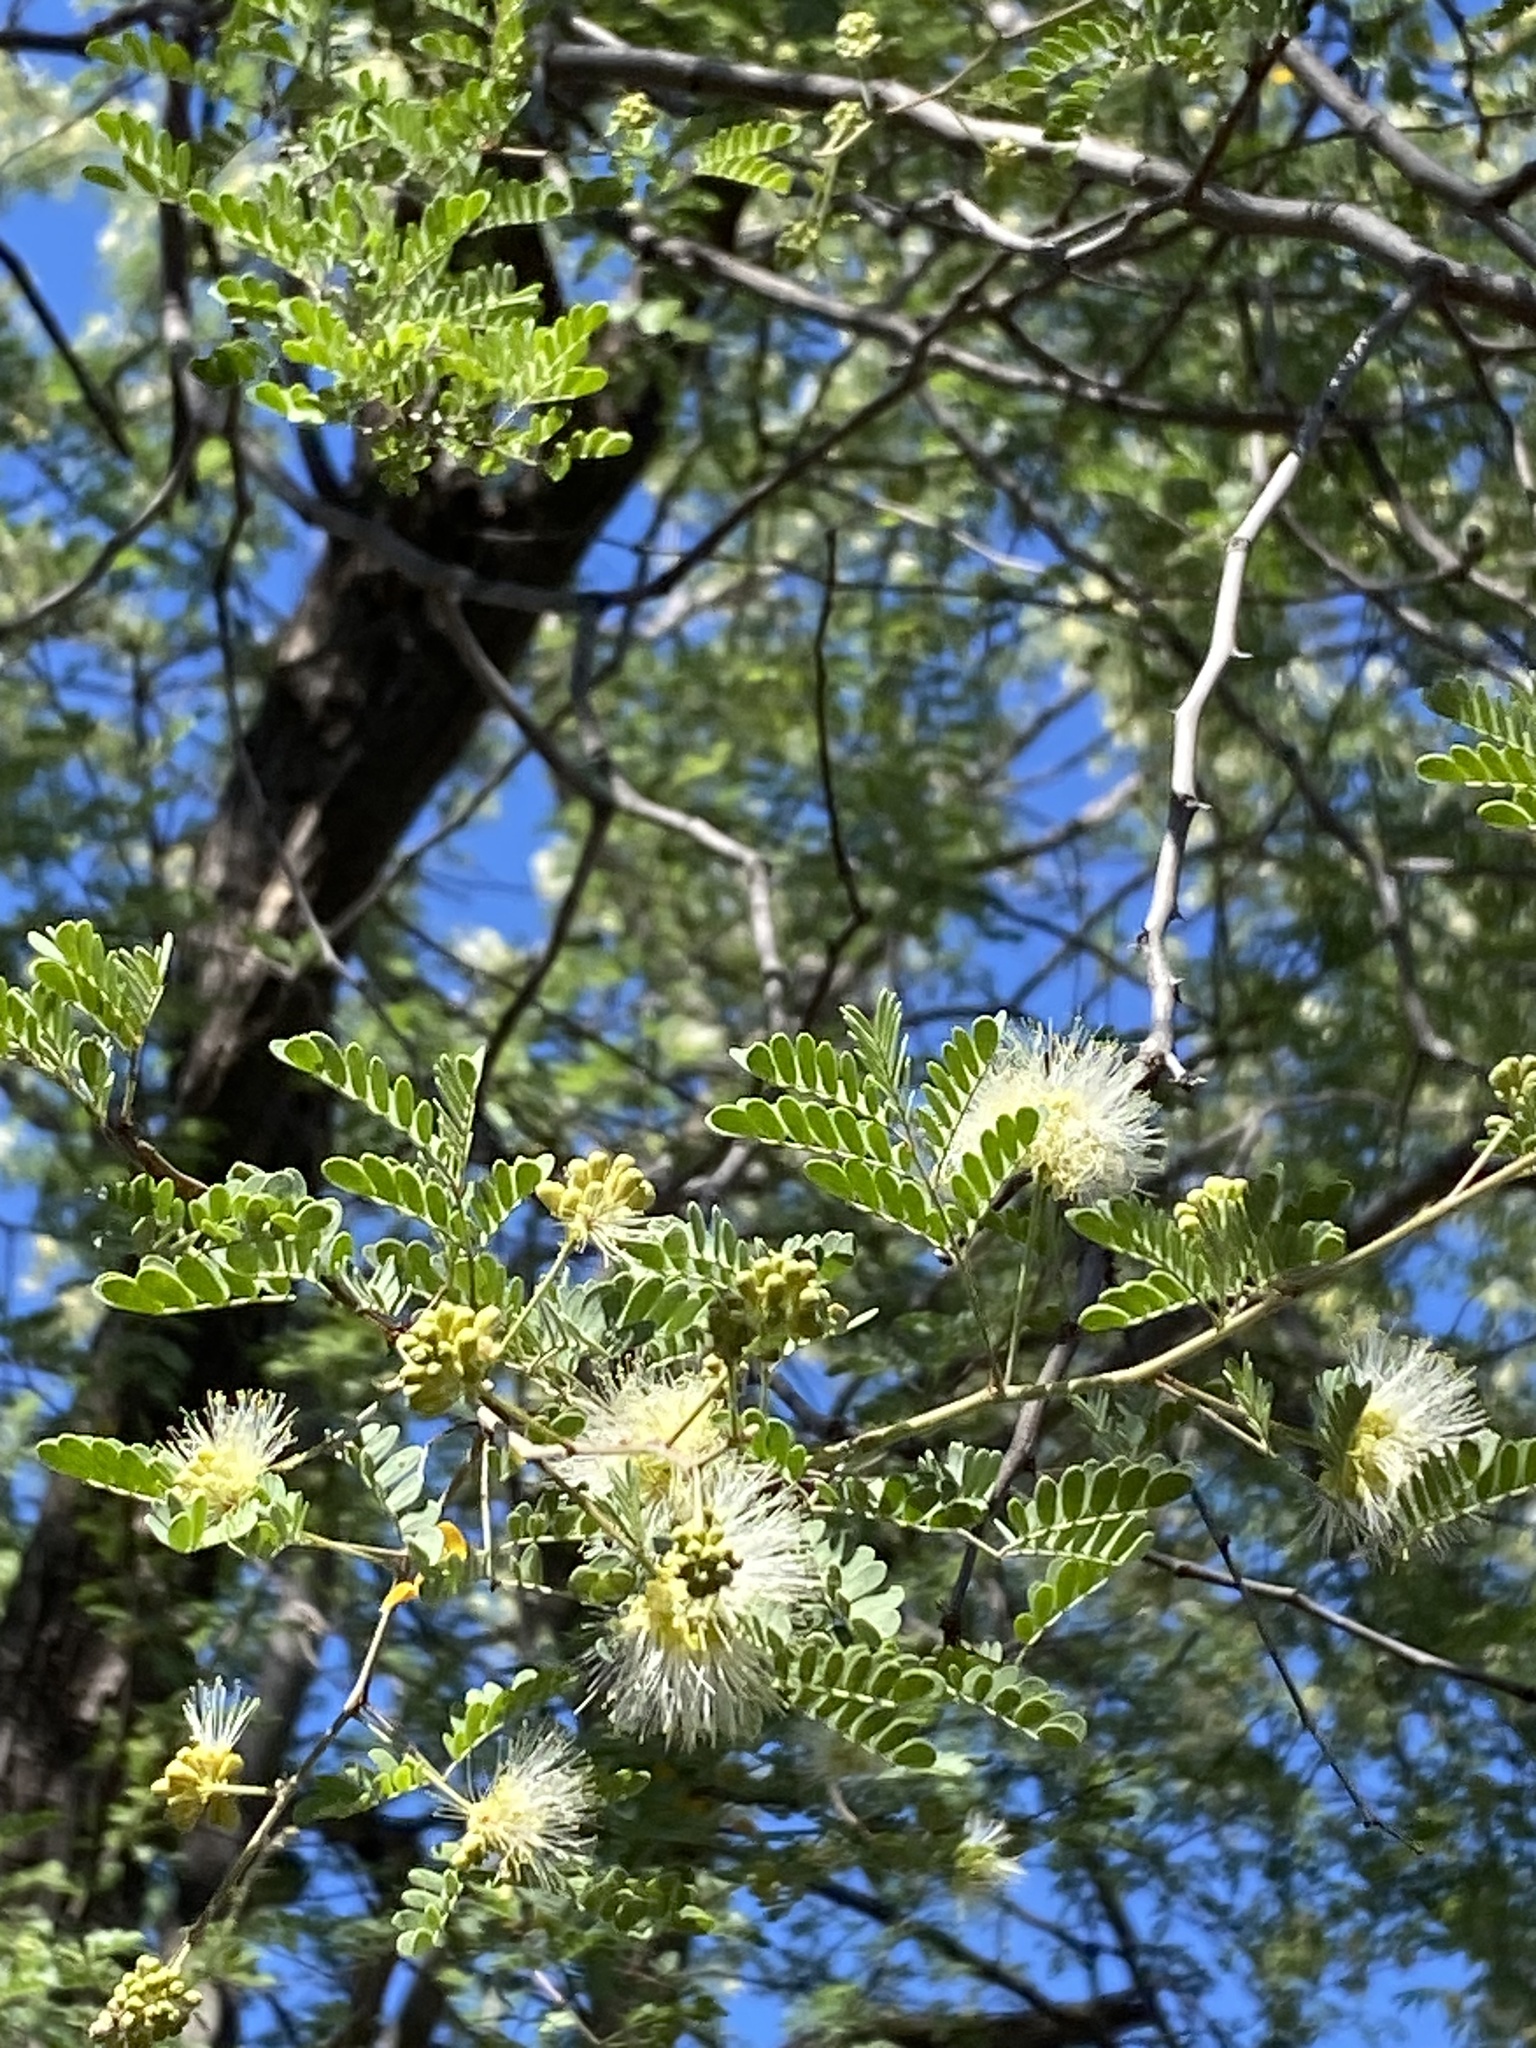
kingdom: Plantae
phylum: Tracheophyta
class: Magnoliopsida
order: Fabales
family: Fabaceae
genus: Havardia
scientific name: Havardia mexicana
